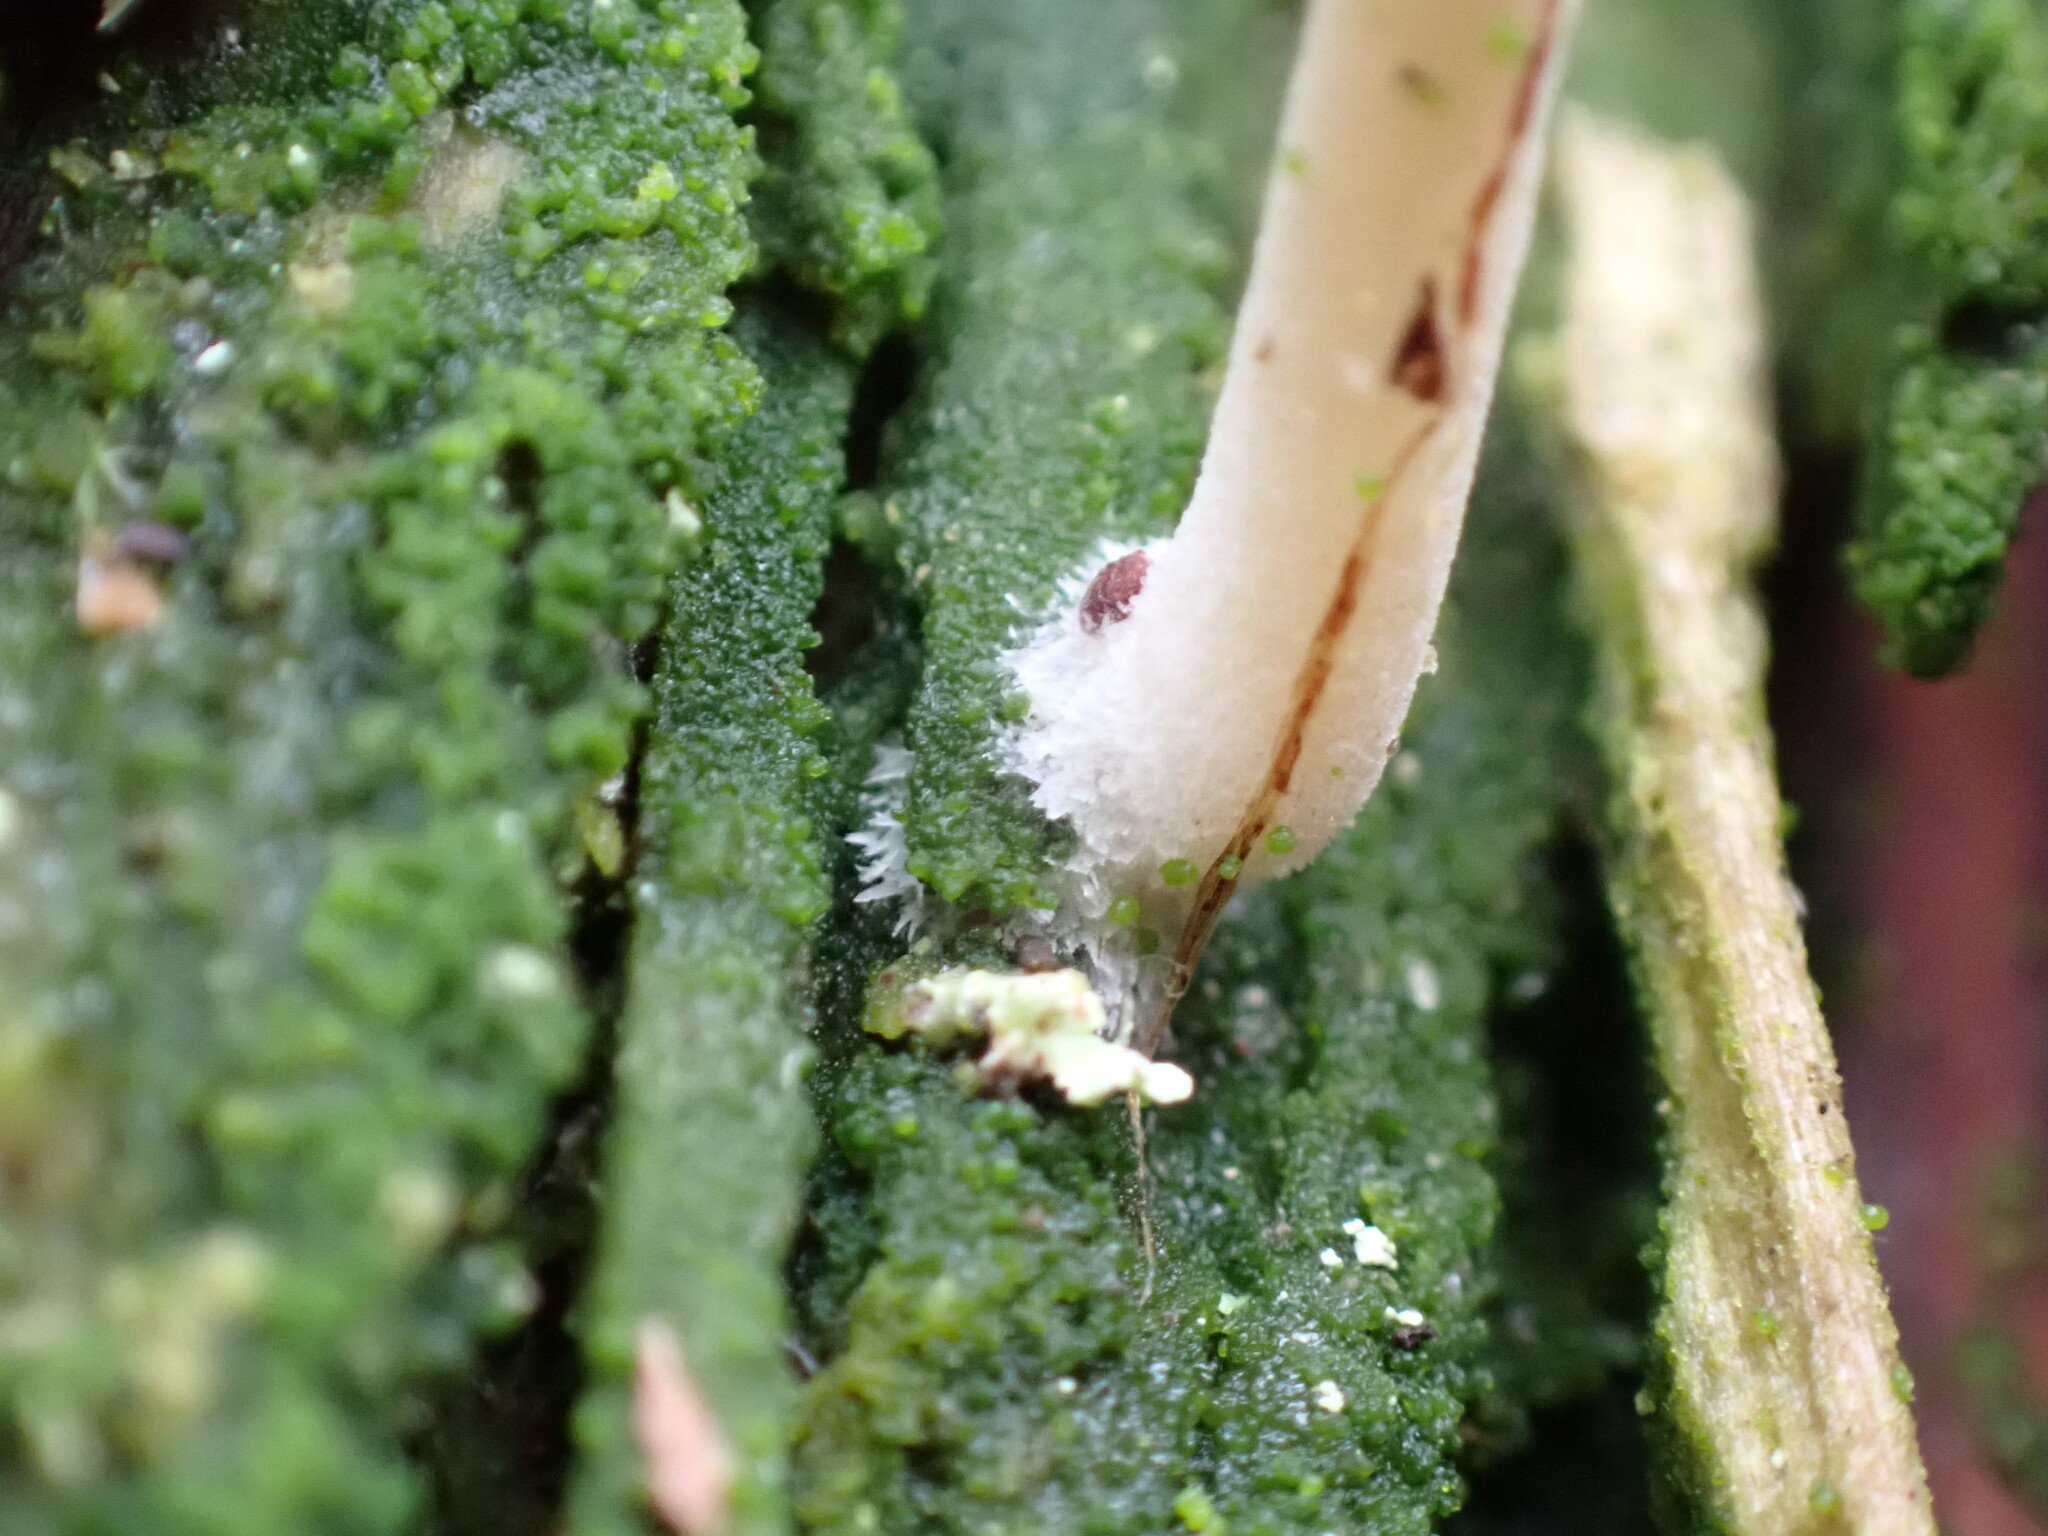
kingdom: Fungi
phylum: Basidiomycota
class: Agaricomycetes
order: Agaricales
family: Hygrophoraceae
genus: Lichenomphalia
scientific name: Lichenomphalia
